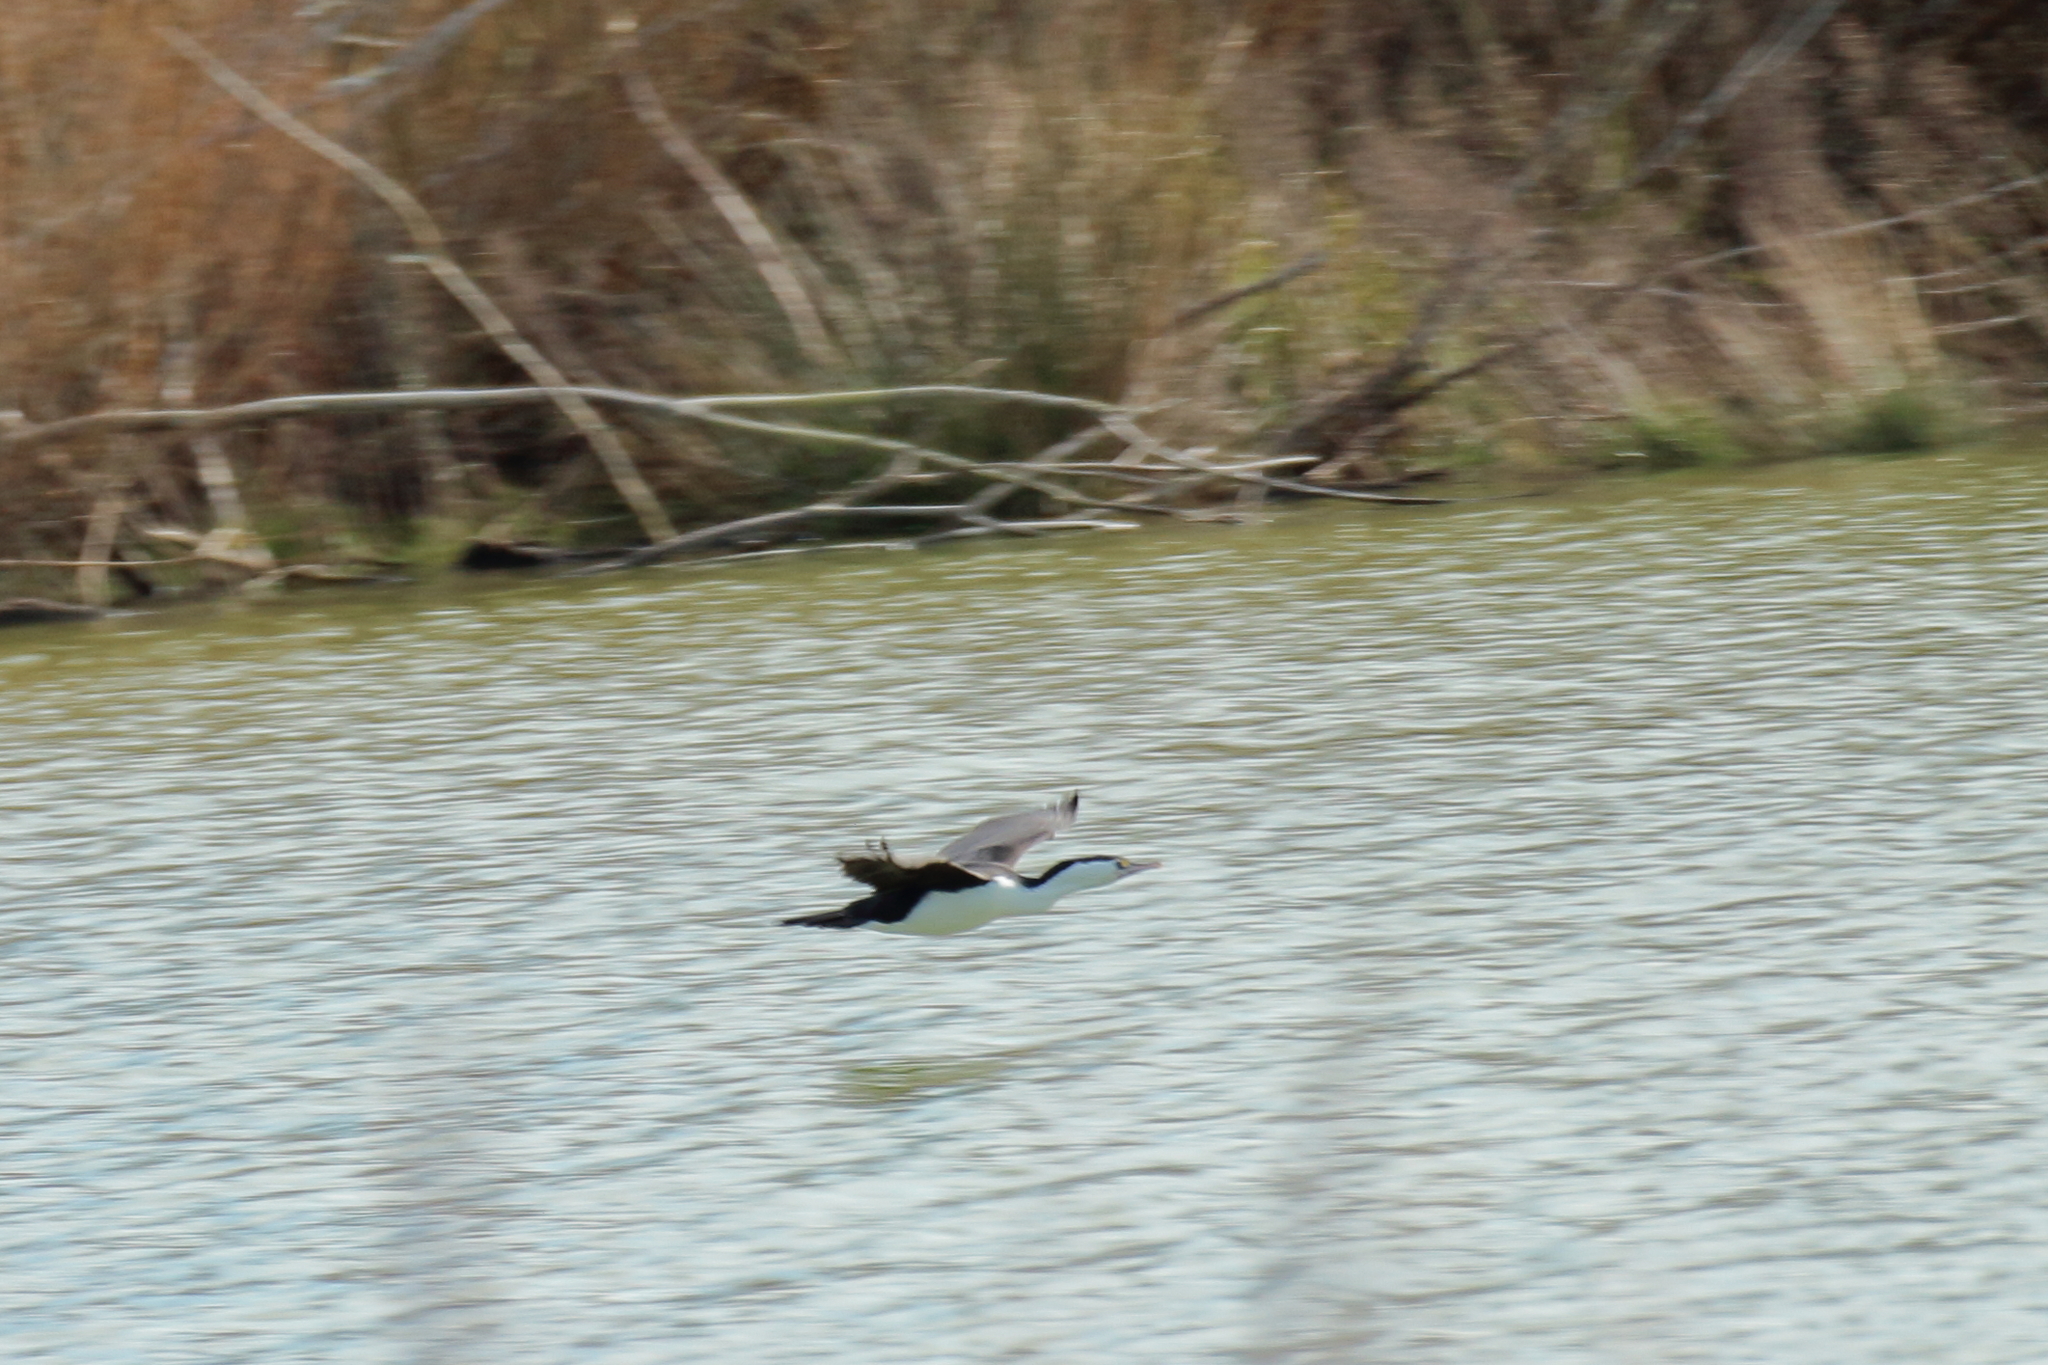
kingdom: Animalia
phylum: Chordata
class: Aves
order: Suliformes
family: Phalacrocoracidae
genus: Phalacrocorax
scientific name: Phalacrocorax varius
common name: Pied cormorant
